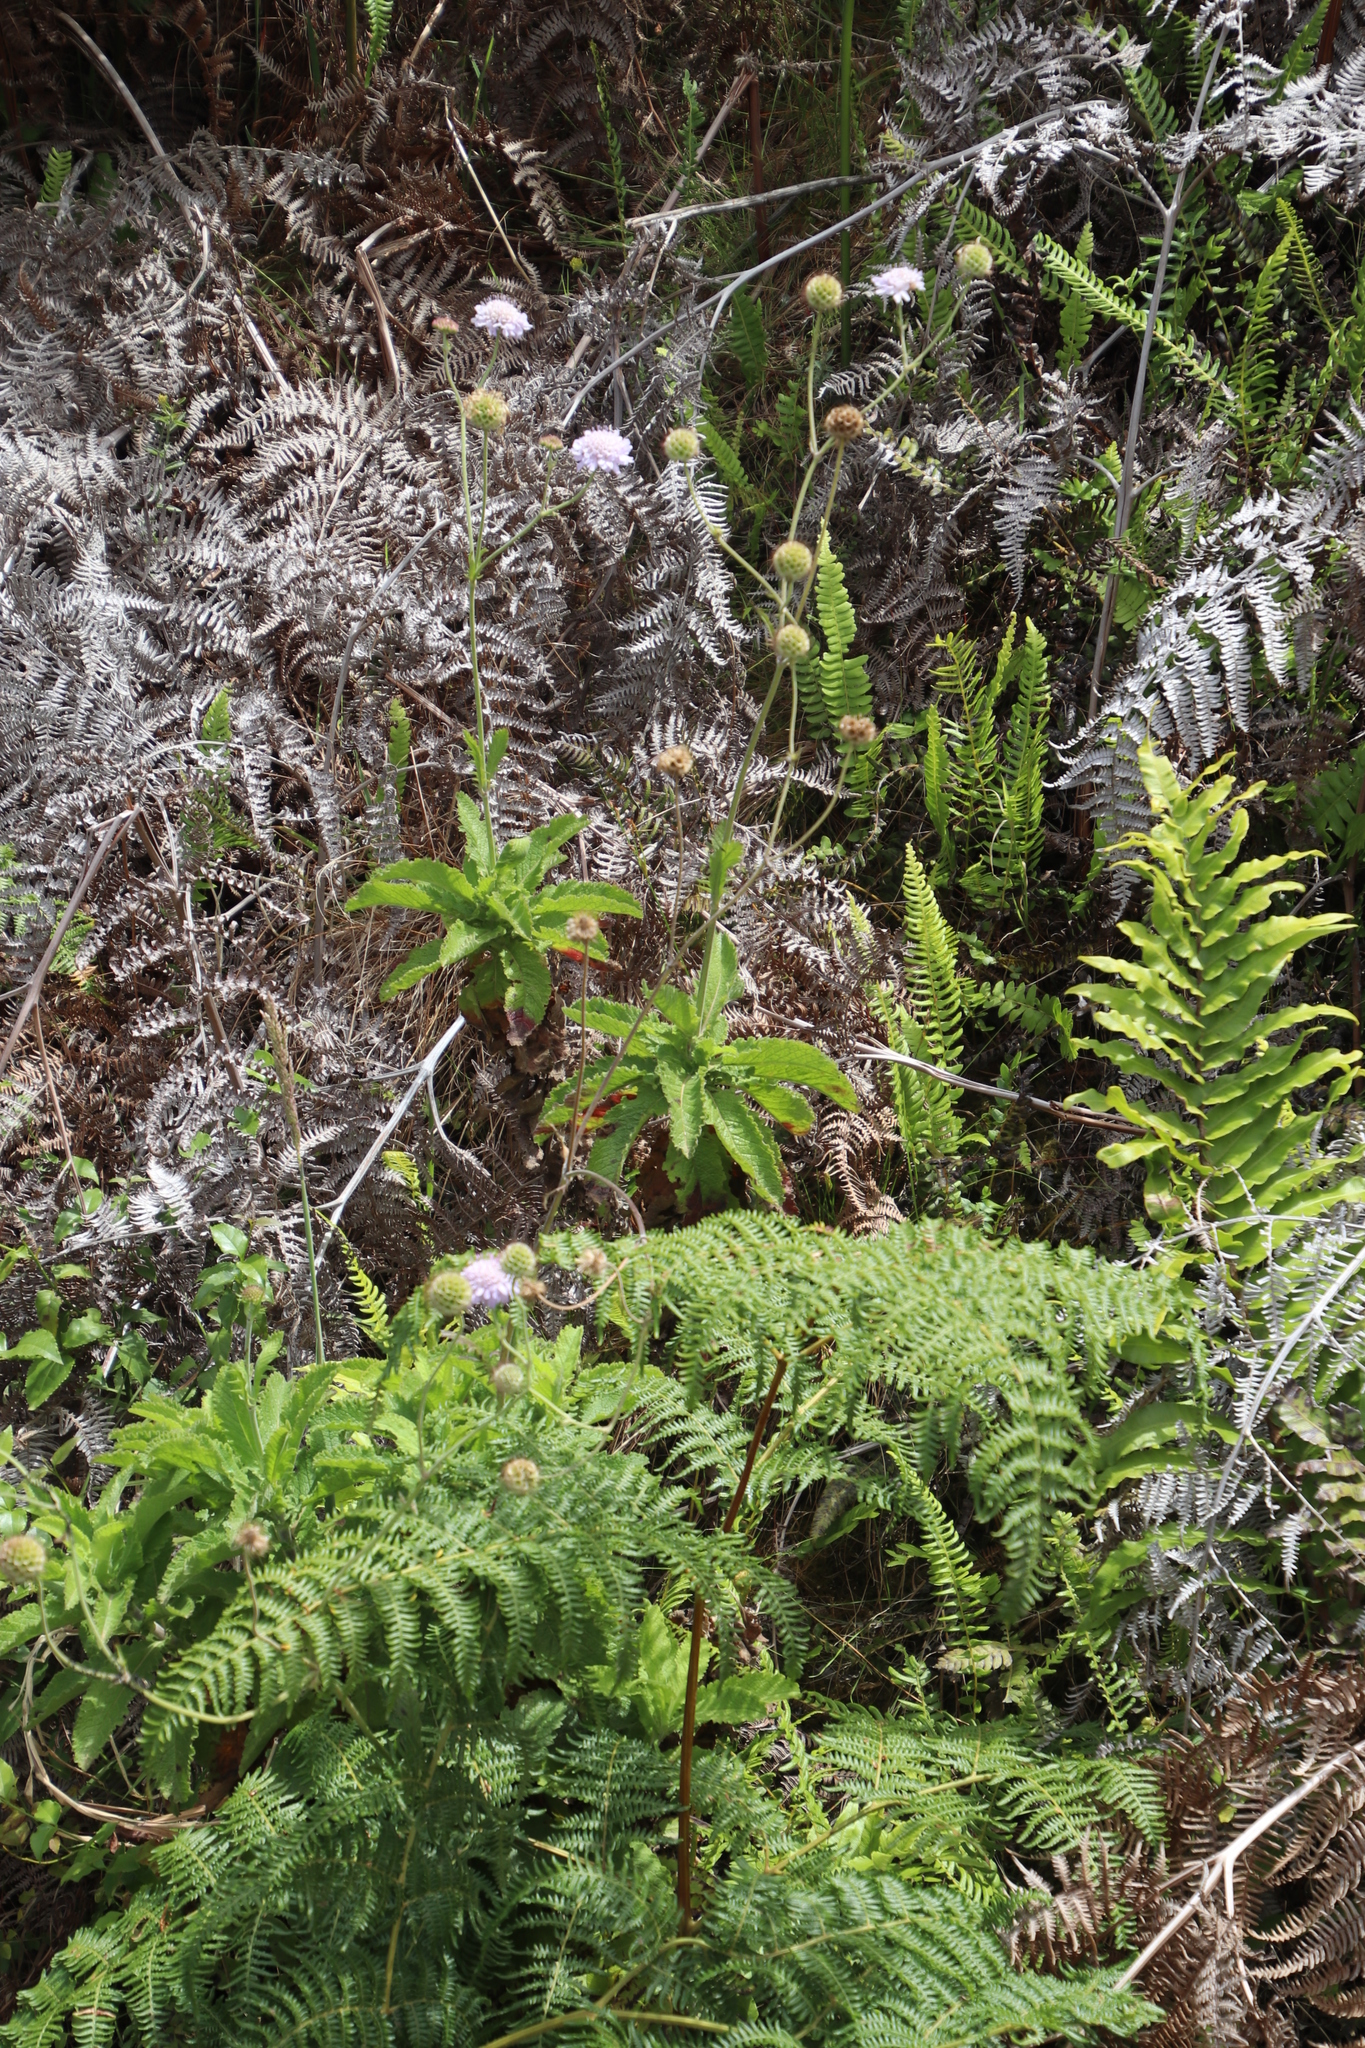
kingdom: Plantae
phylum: Tracheophyta
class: Magnoliopsida
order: Dipsacales
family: Caprifoliaceae
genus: Scabiosa
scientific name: Scabiosa africana
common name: Cape scabious
